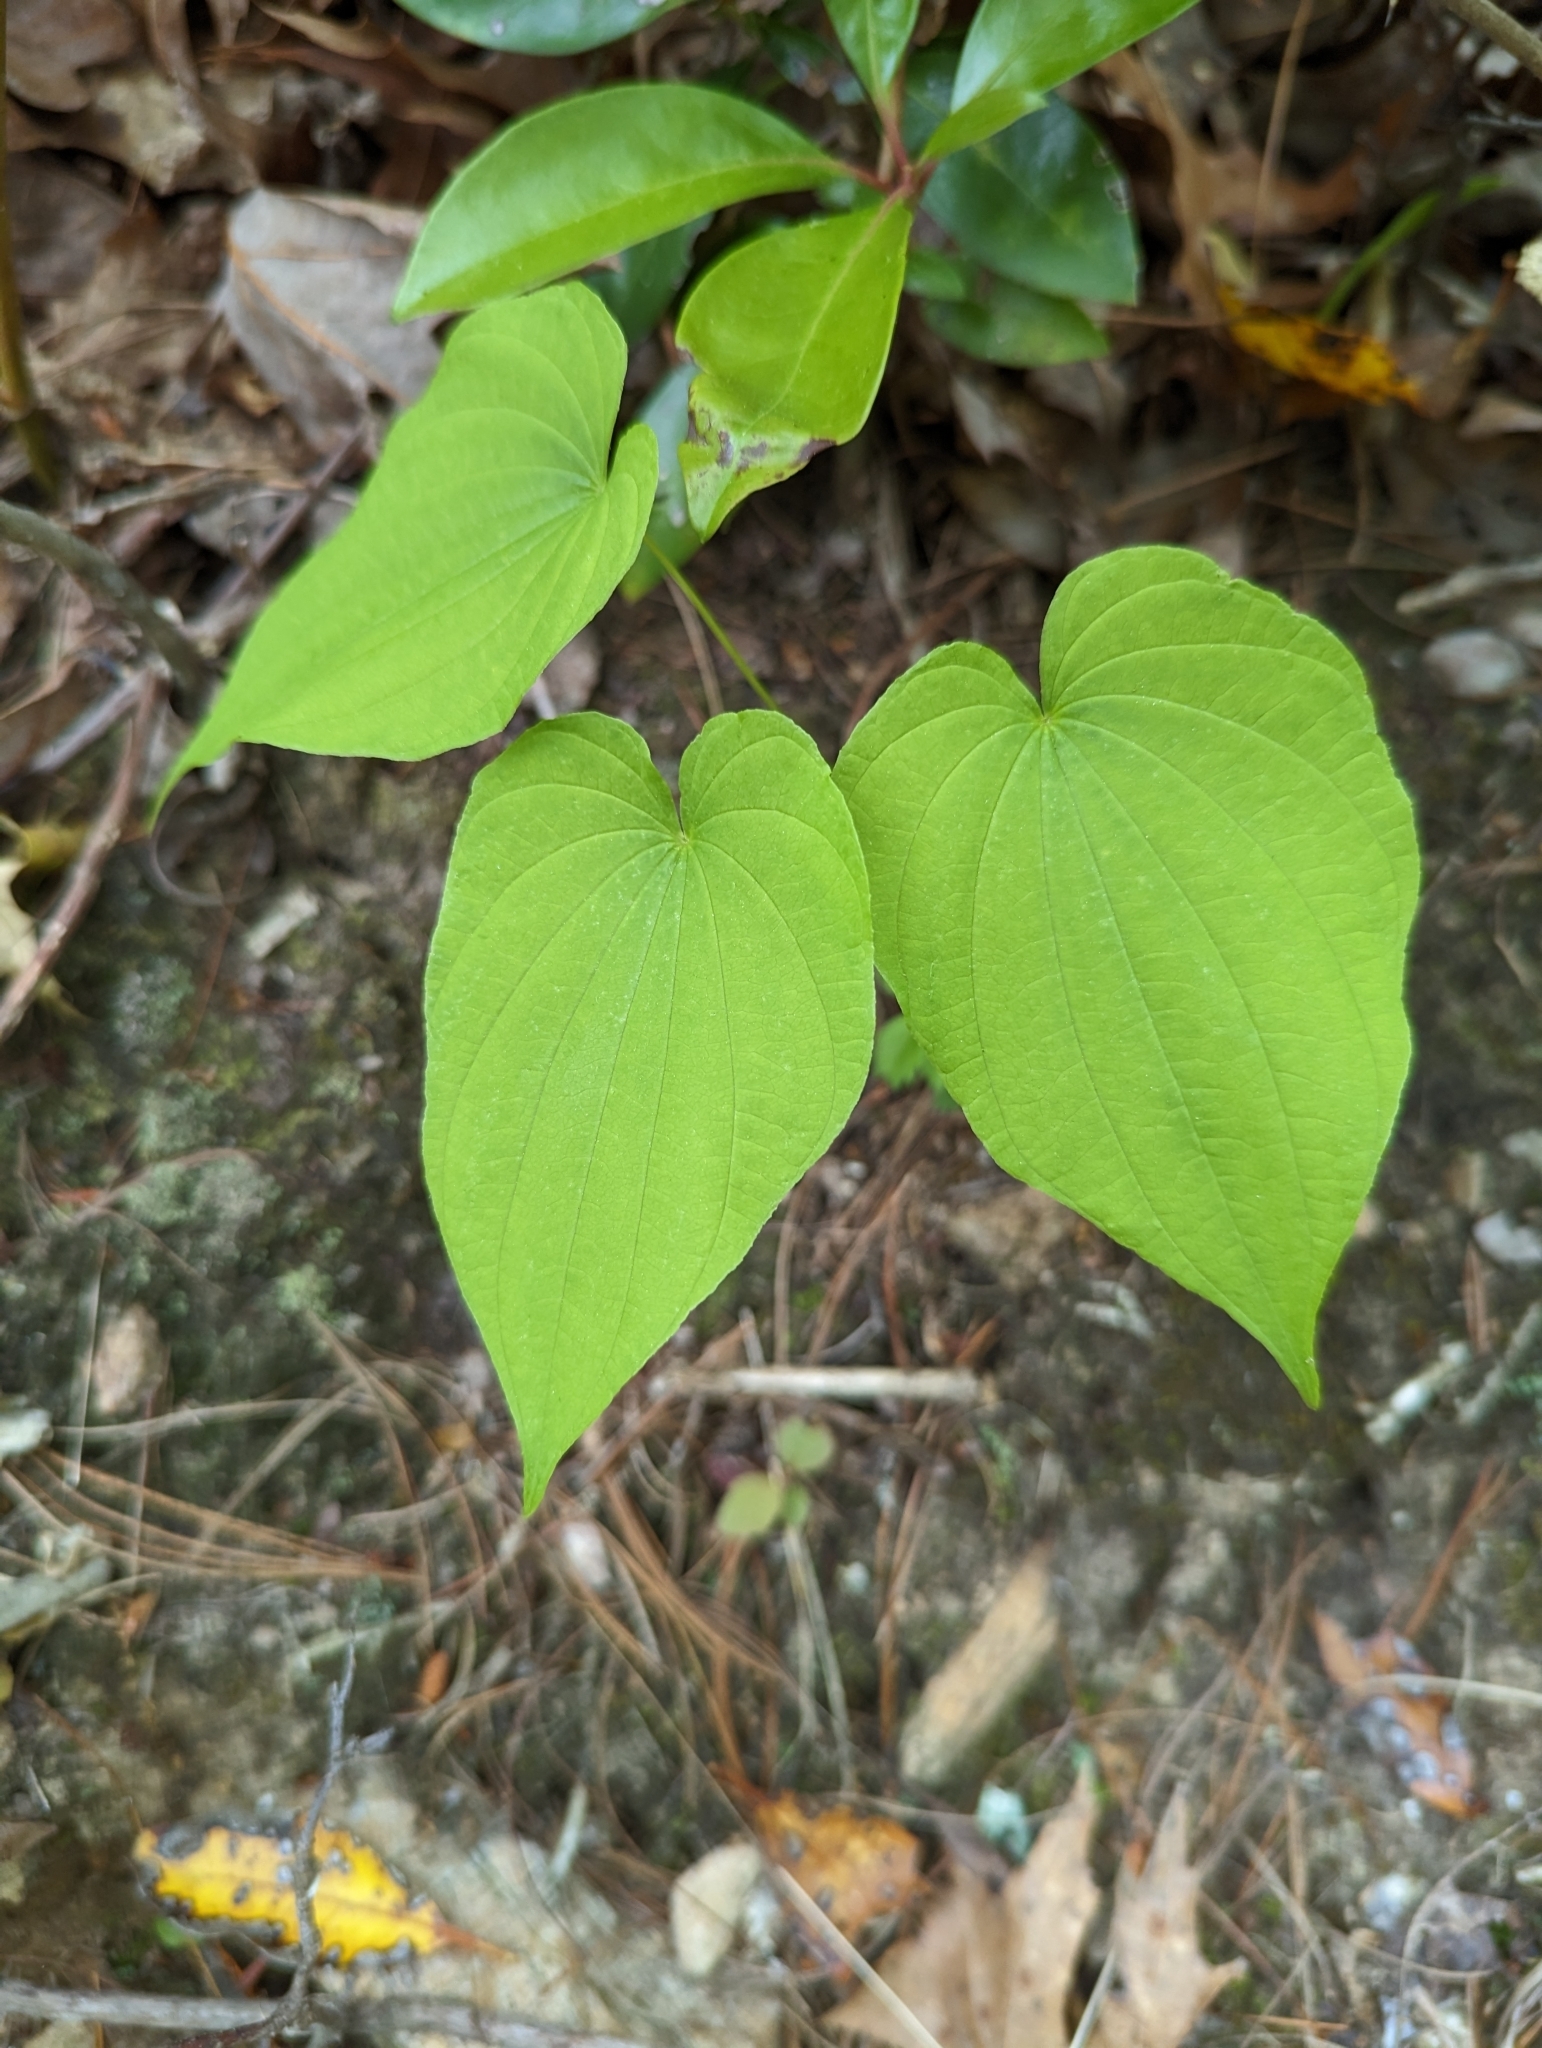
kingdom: Plantae
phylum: Tracheophyta
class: Liliopsida
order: Dioscoreales
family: Dioscoreaceae
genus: Dioscorea
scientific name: Dioscorea villosa
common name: Wild yam
